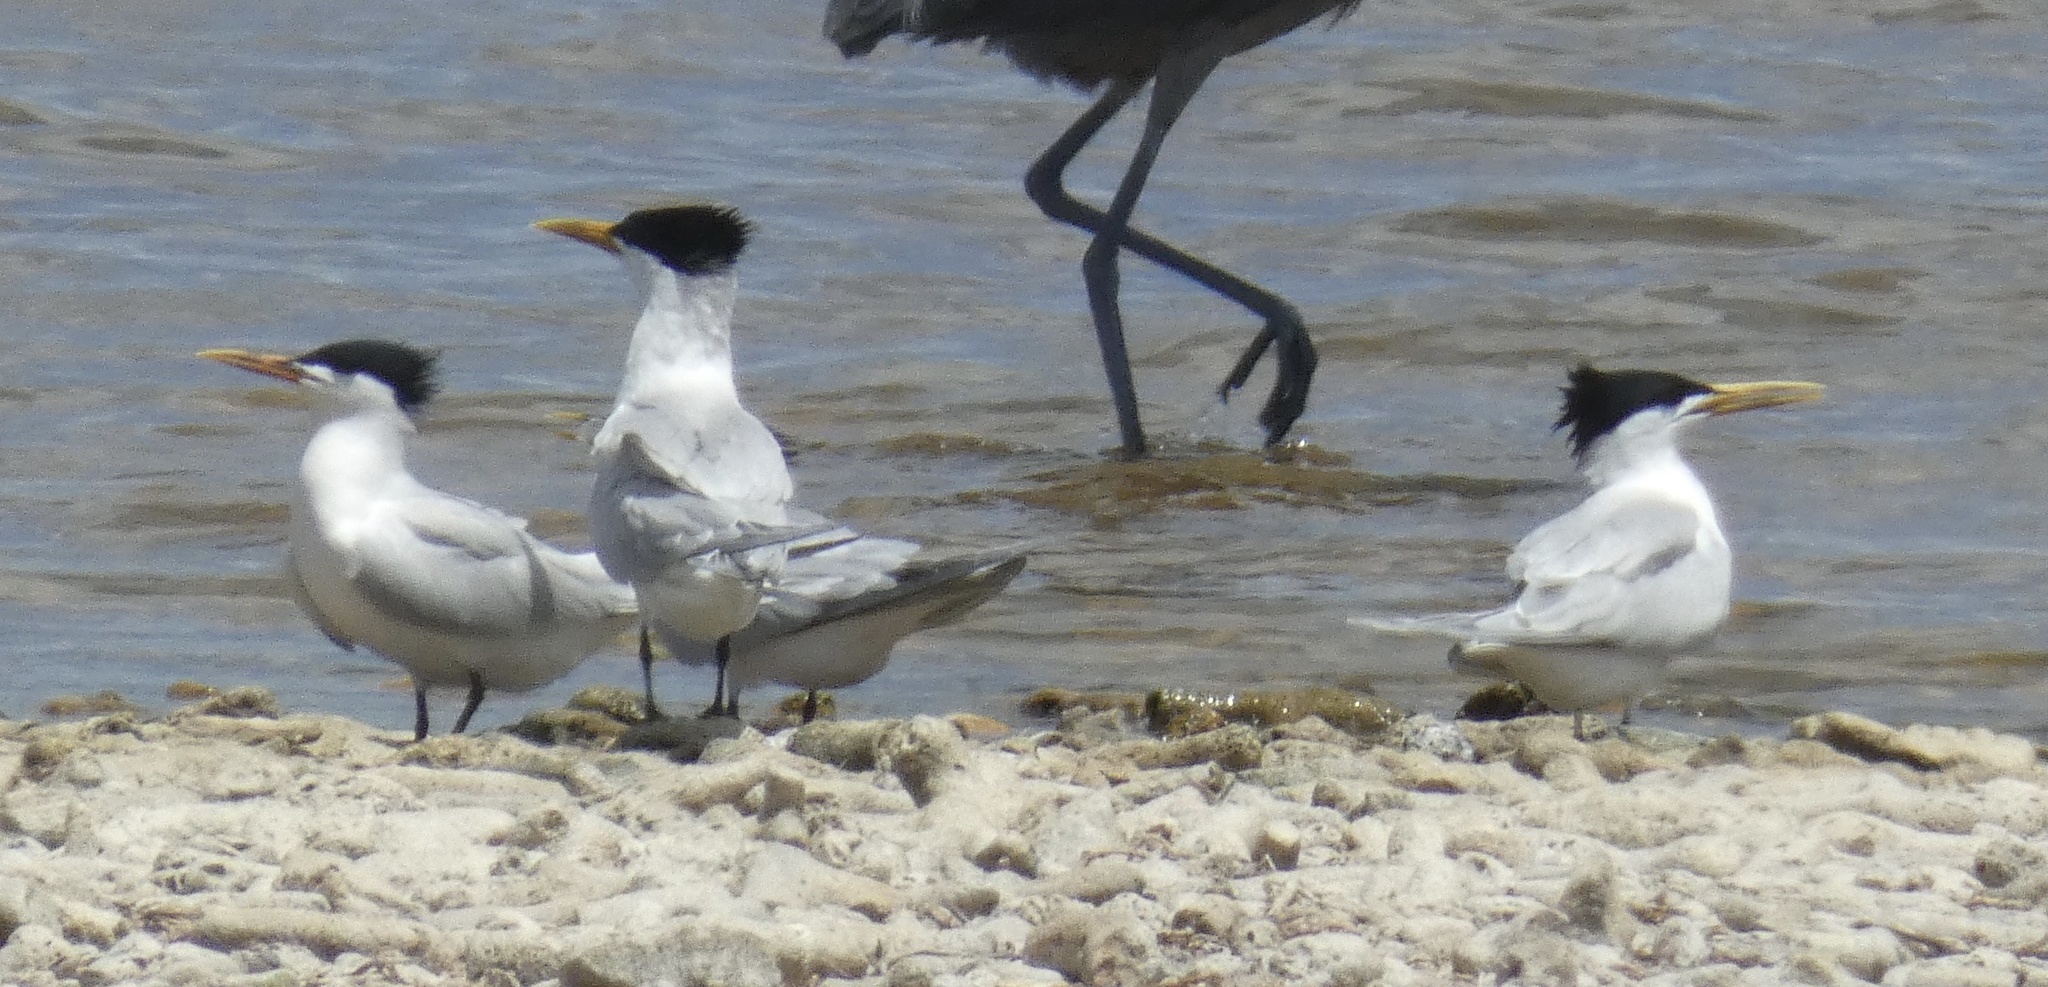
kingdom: Animalia
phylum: Chordata
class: Aves
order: Charadriiformes
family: Laridae
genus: Thalasseus
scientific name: Thalasseus sandvicensis
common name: Sandwich tern
